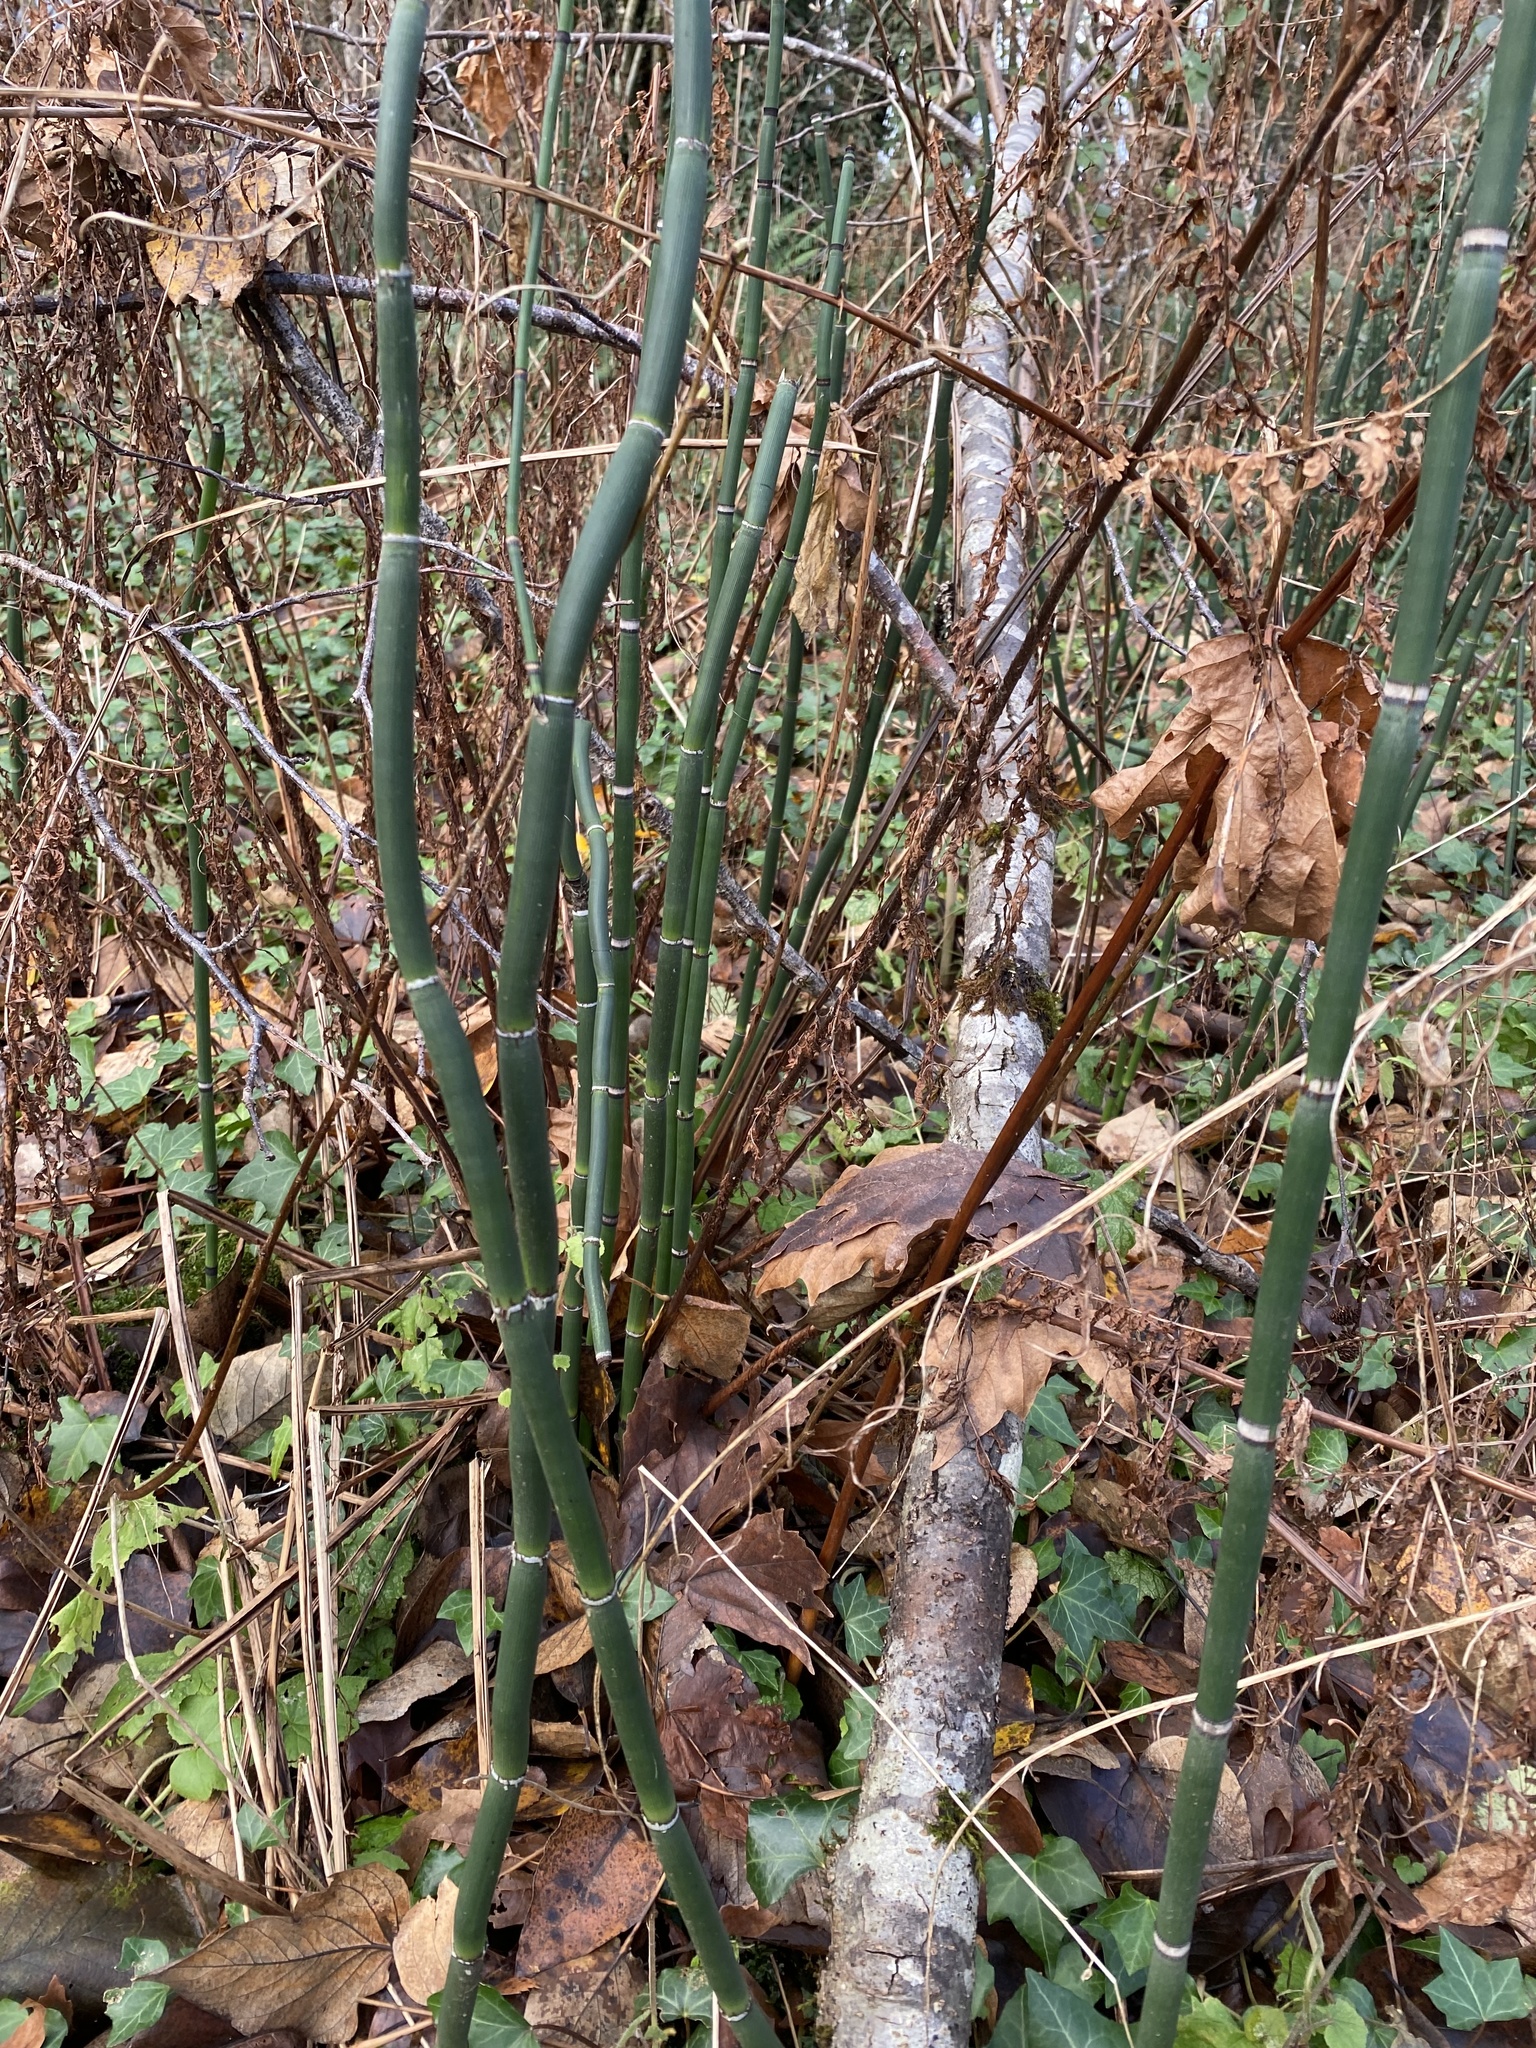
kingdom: Plantae
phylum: Tracheophyta
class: Polypodiopsida
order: Equisetales
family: Equisetaceae
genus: Equisetum
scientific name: Equisetum hyemale
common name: Rough horsetail
